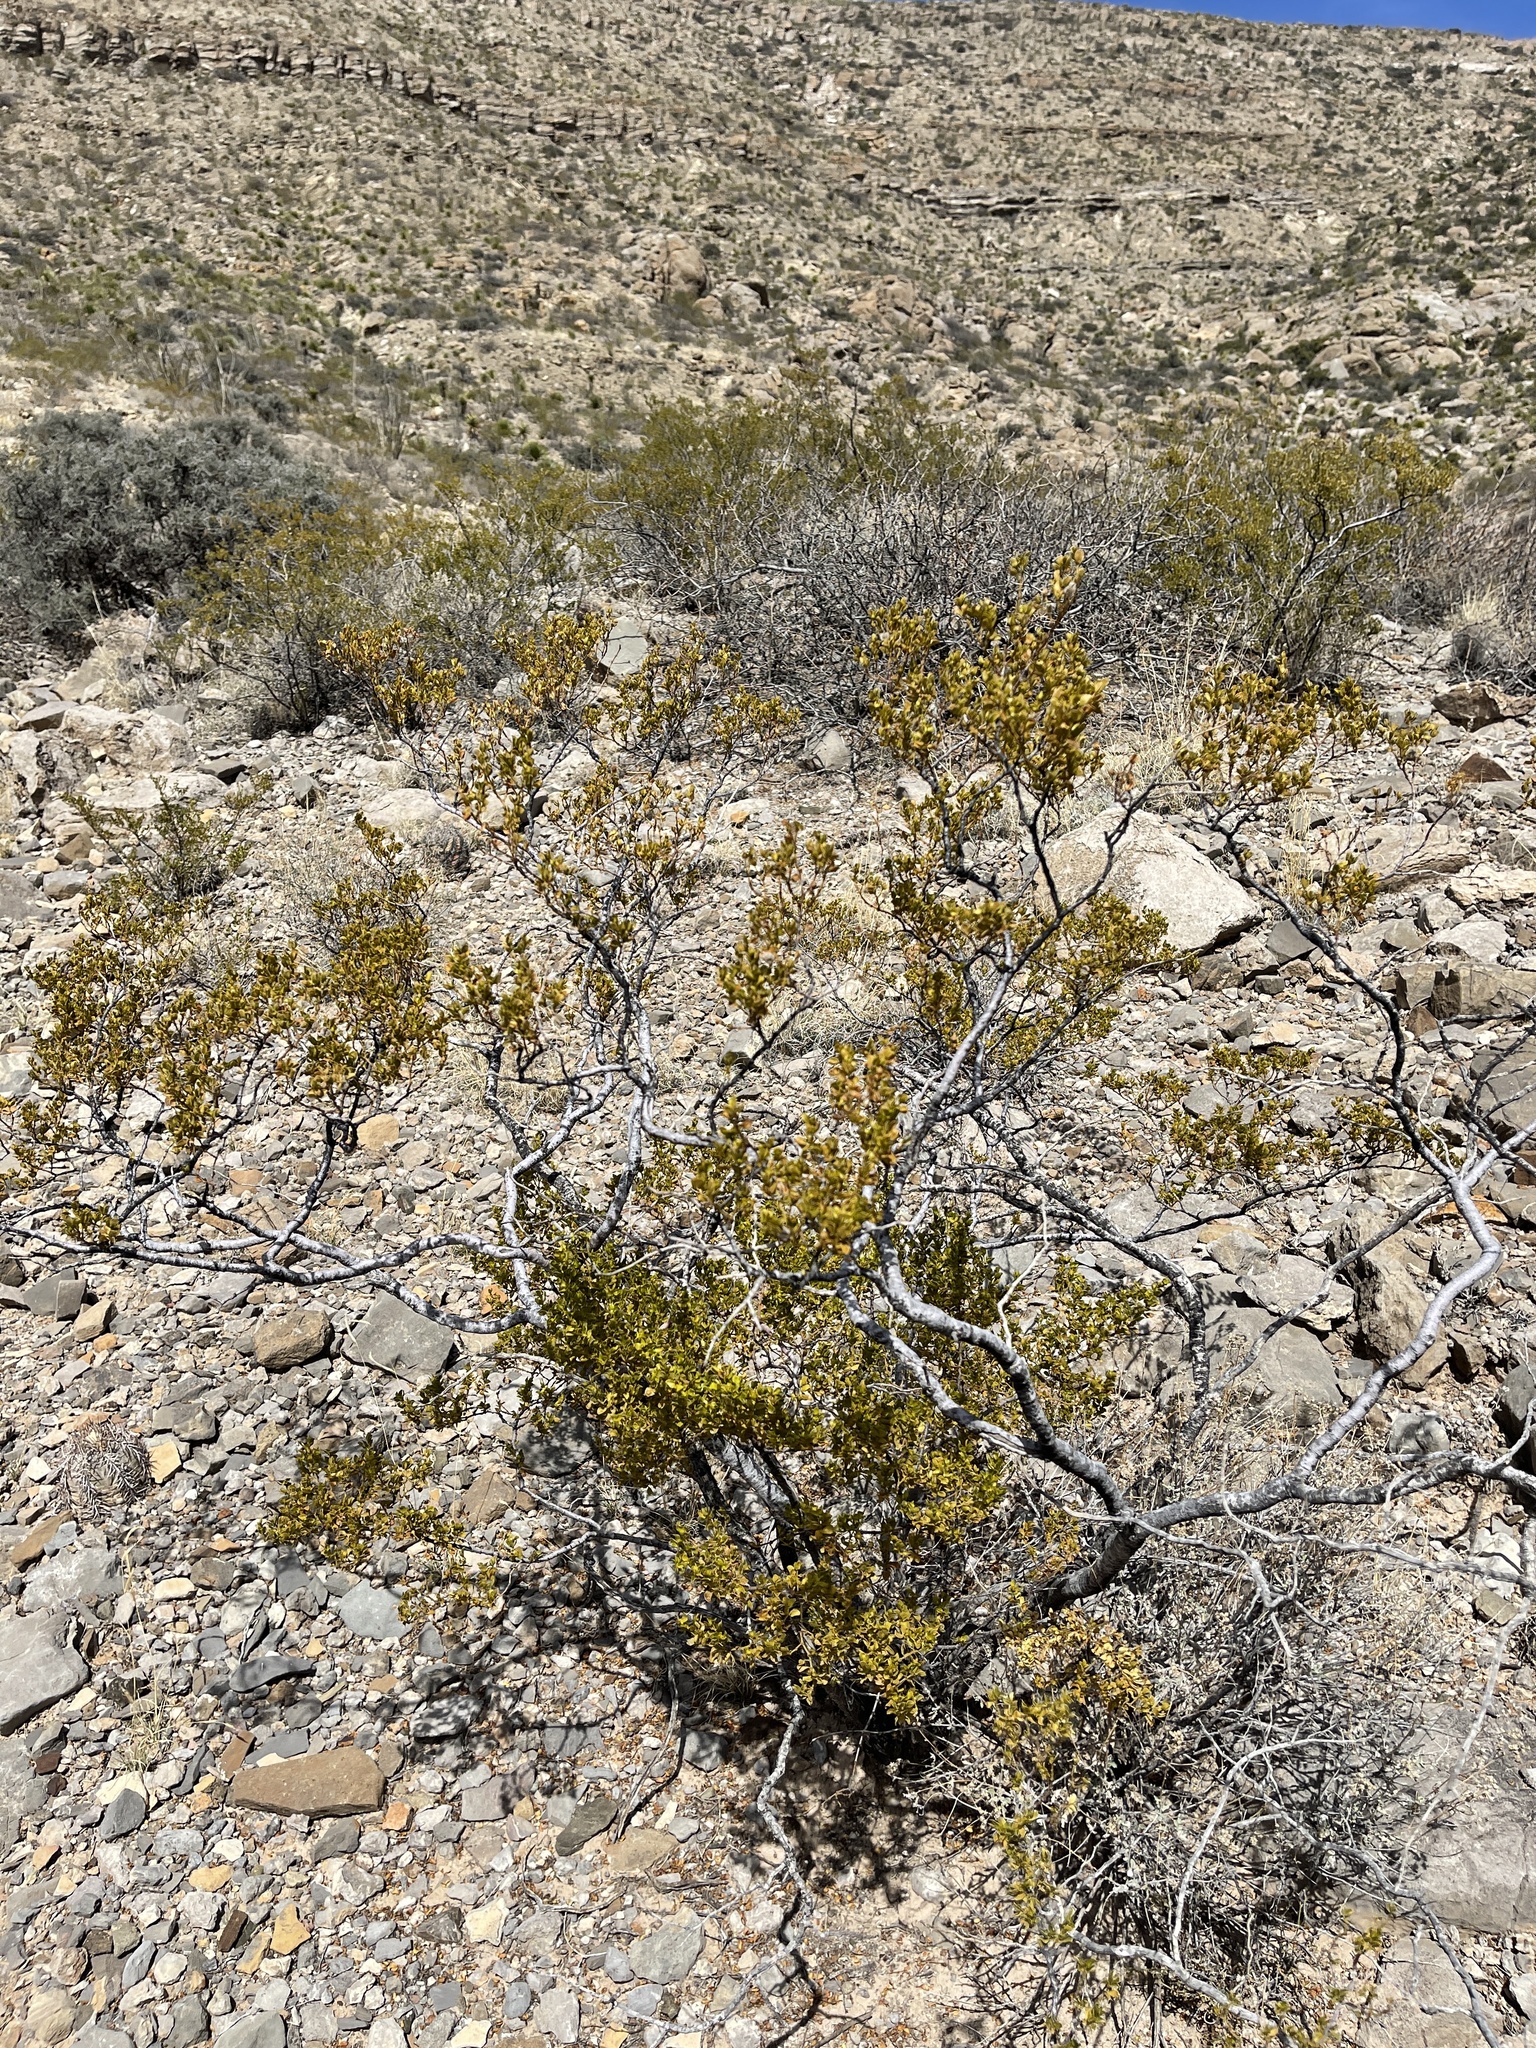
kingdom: Plantae
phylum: Tracheophyta
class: Magnoliopsida
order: Zygophyllales
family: Zygophyllaceae
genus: Larrea
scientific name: Larrea tridentata
